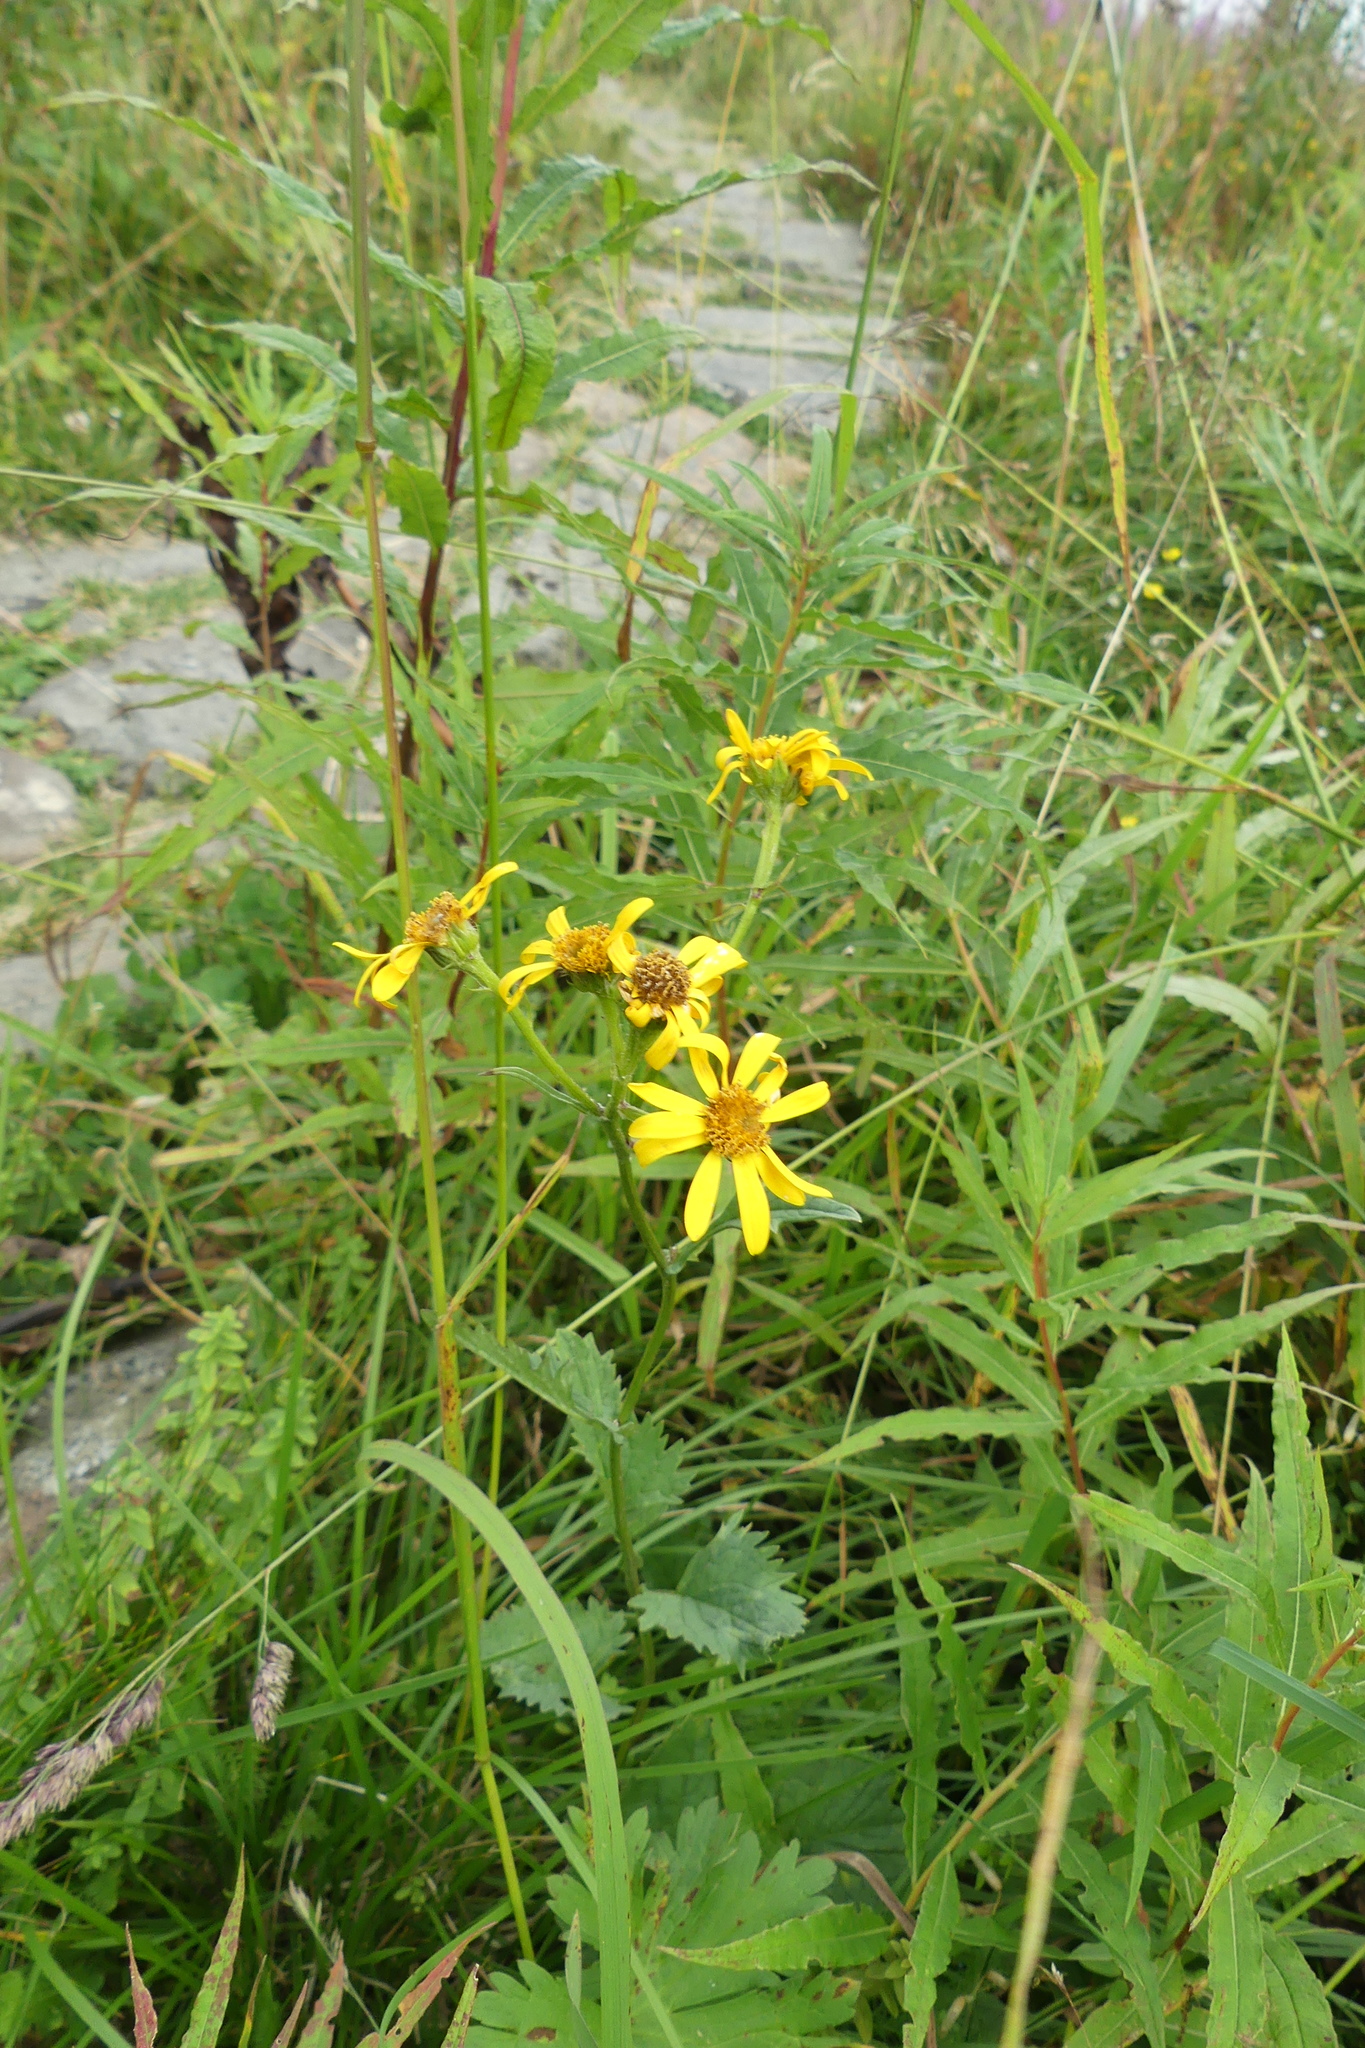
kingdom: Plantae
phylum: Tracheophyta
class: Magnoliopsida
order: Asterales
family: Asteraceae
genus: Jacobaea
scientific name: Jacobaea subalpina
